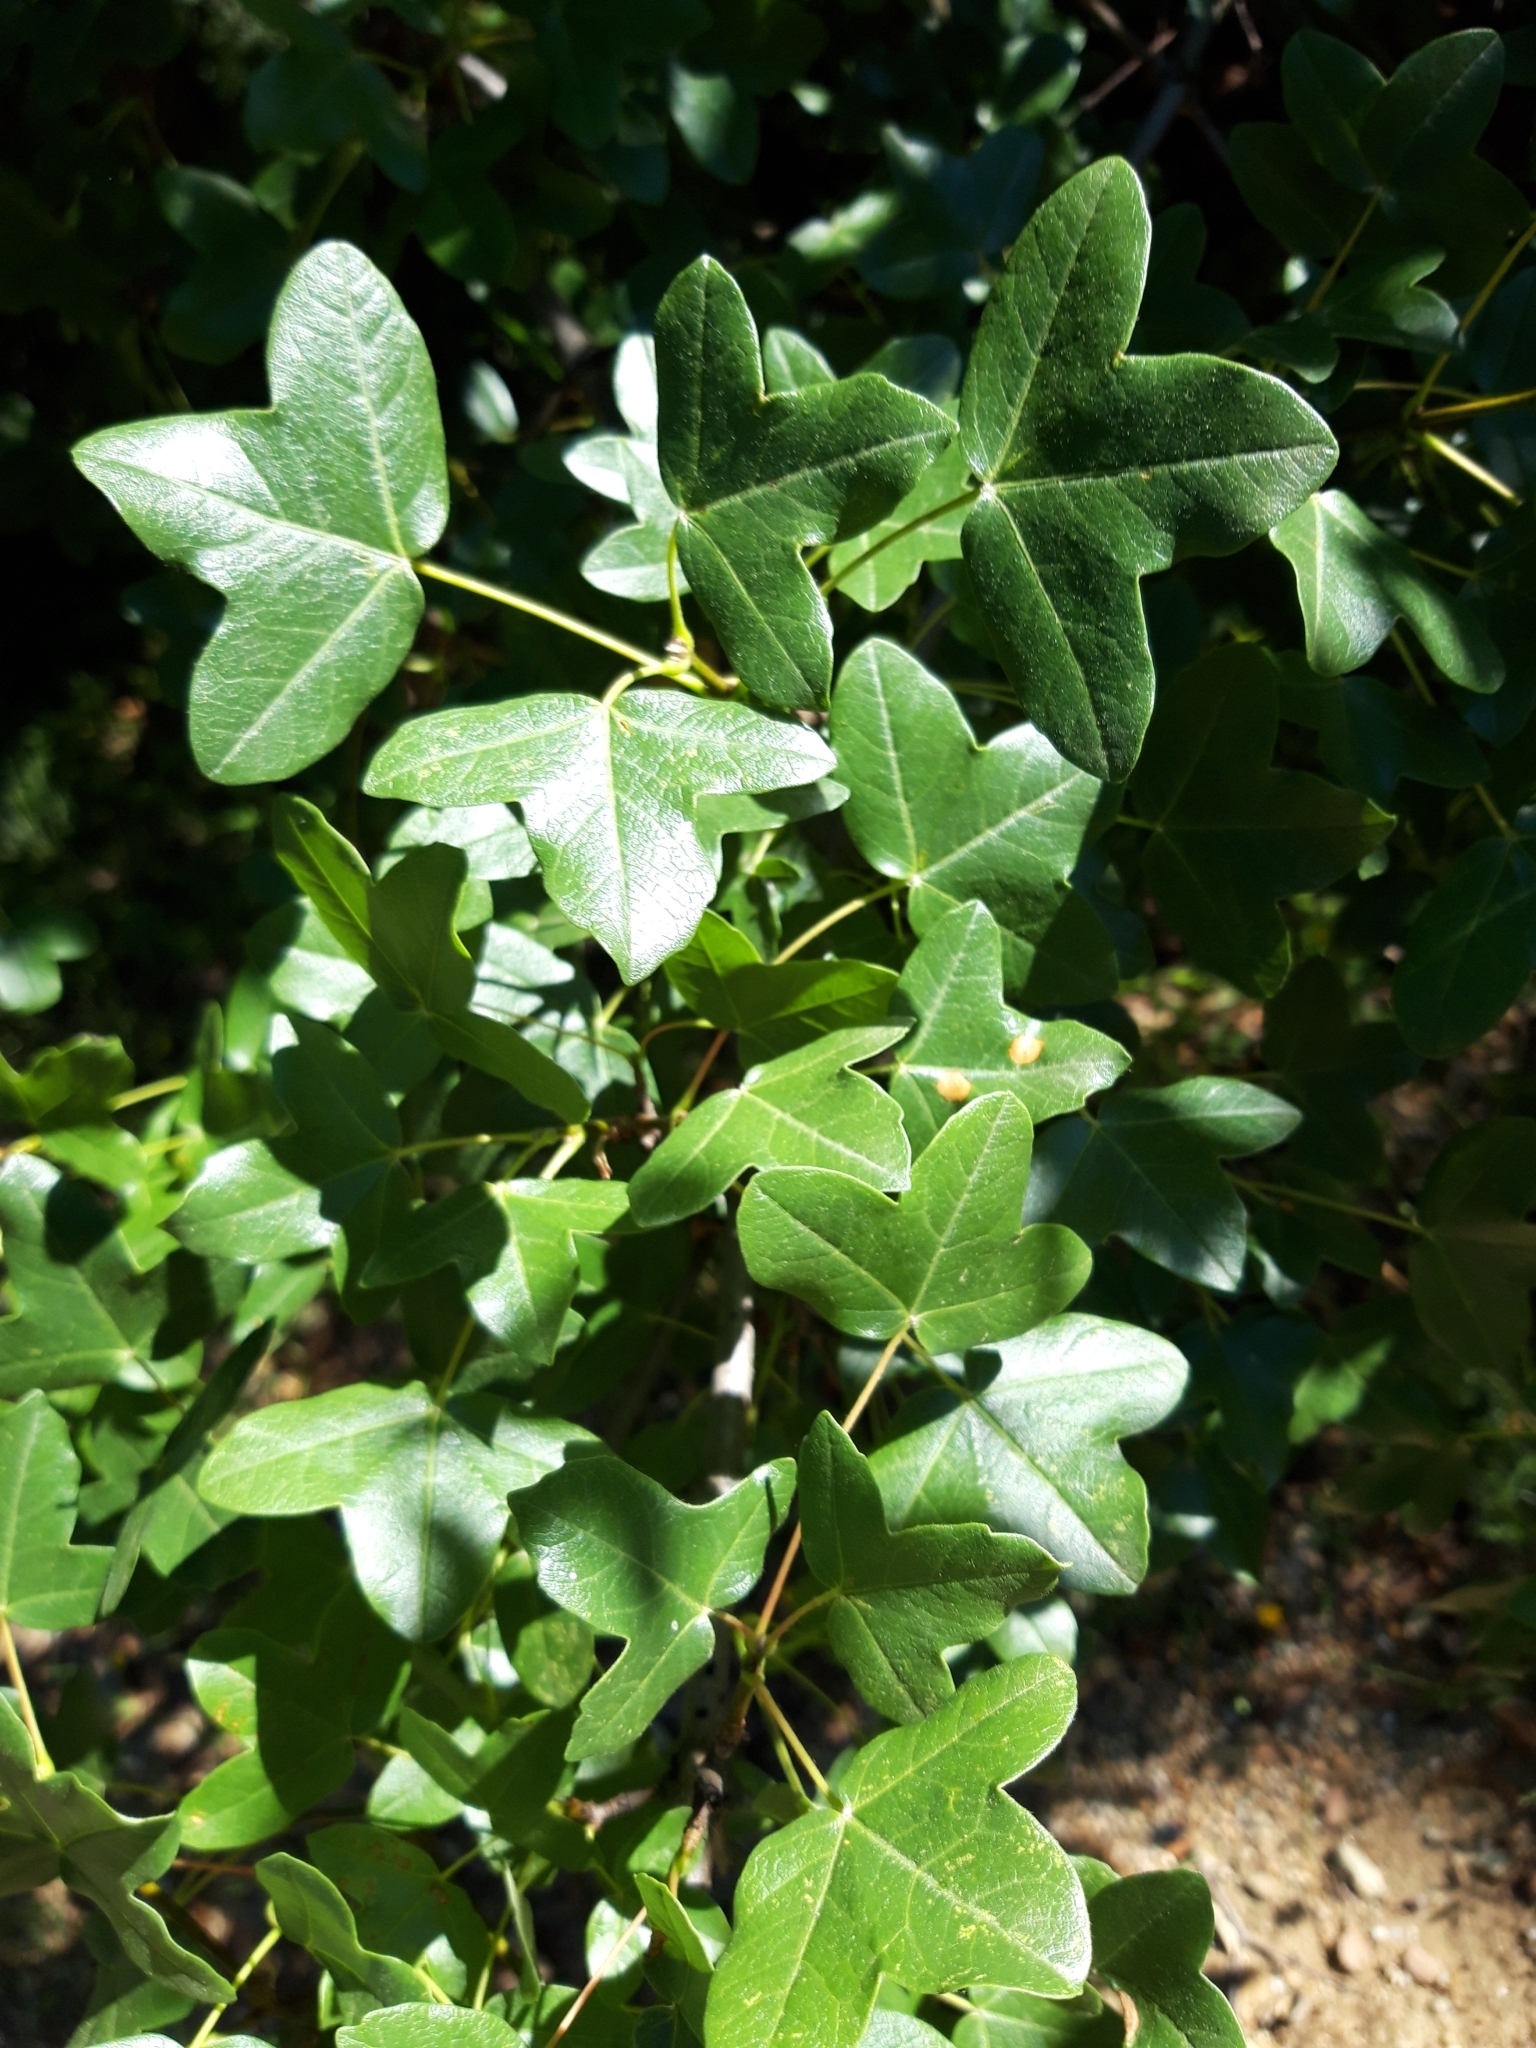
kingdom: Plantae
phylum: Tracheophyta
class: Magnoliopsida
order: Sapindales
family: Sapindaceae
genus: Acer
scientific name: Acer monspessulanum
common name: Montpellier maple
